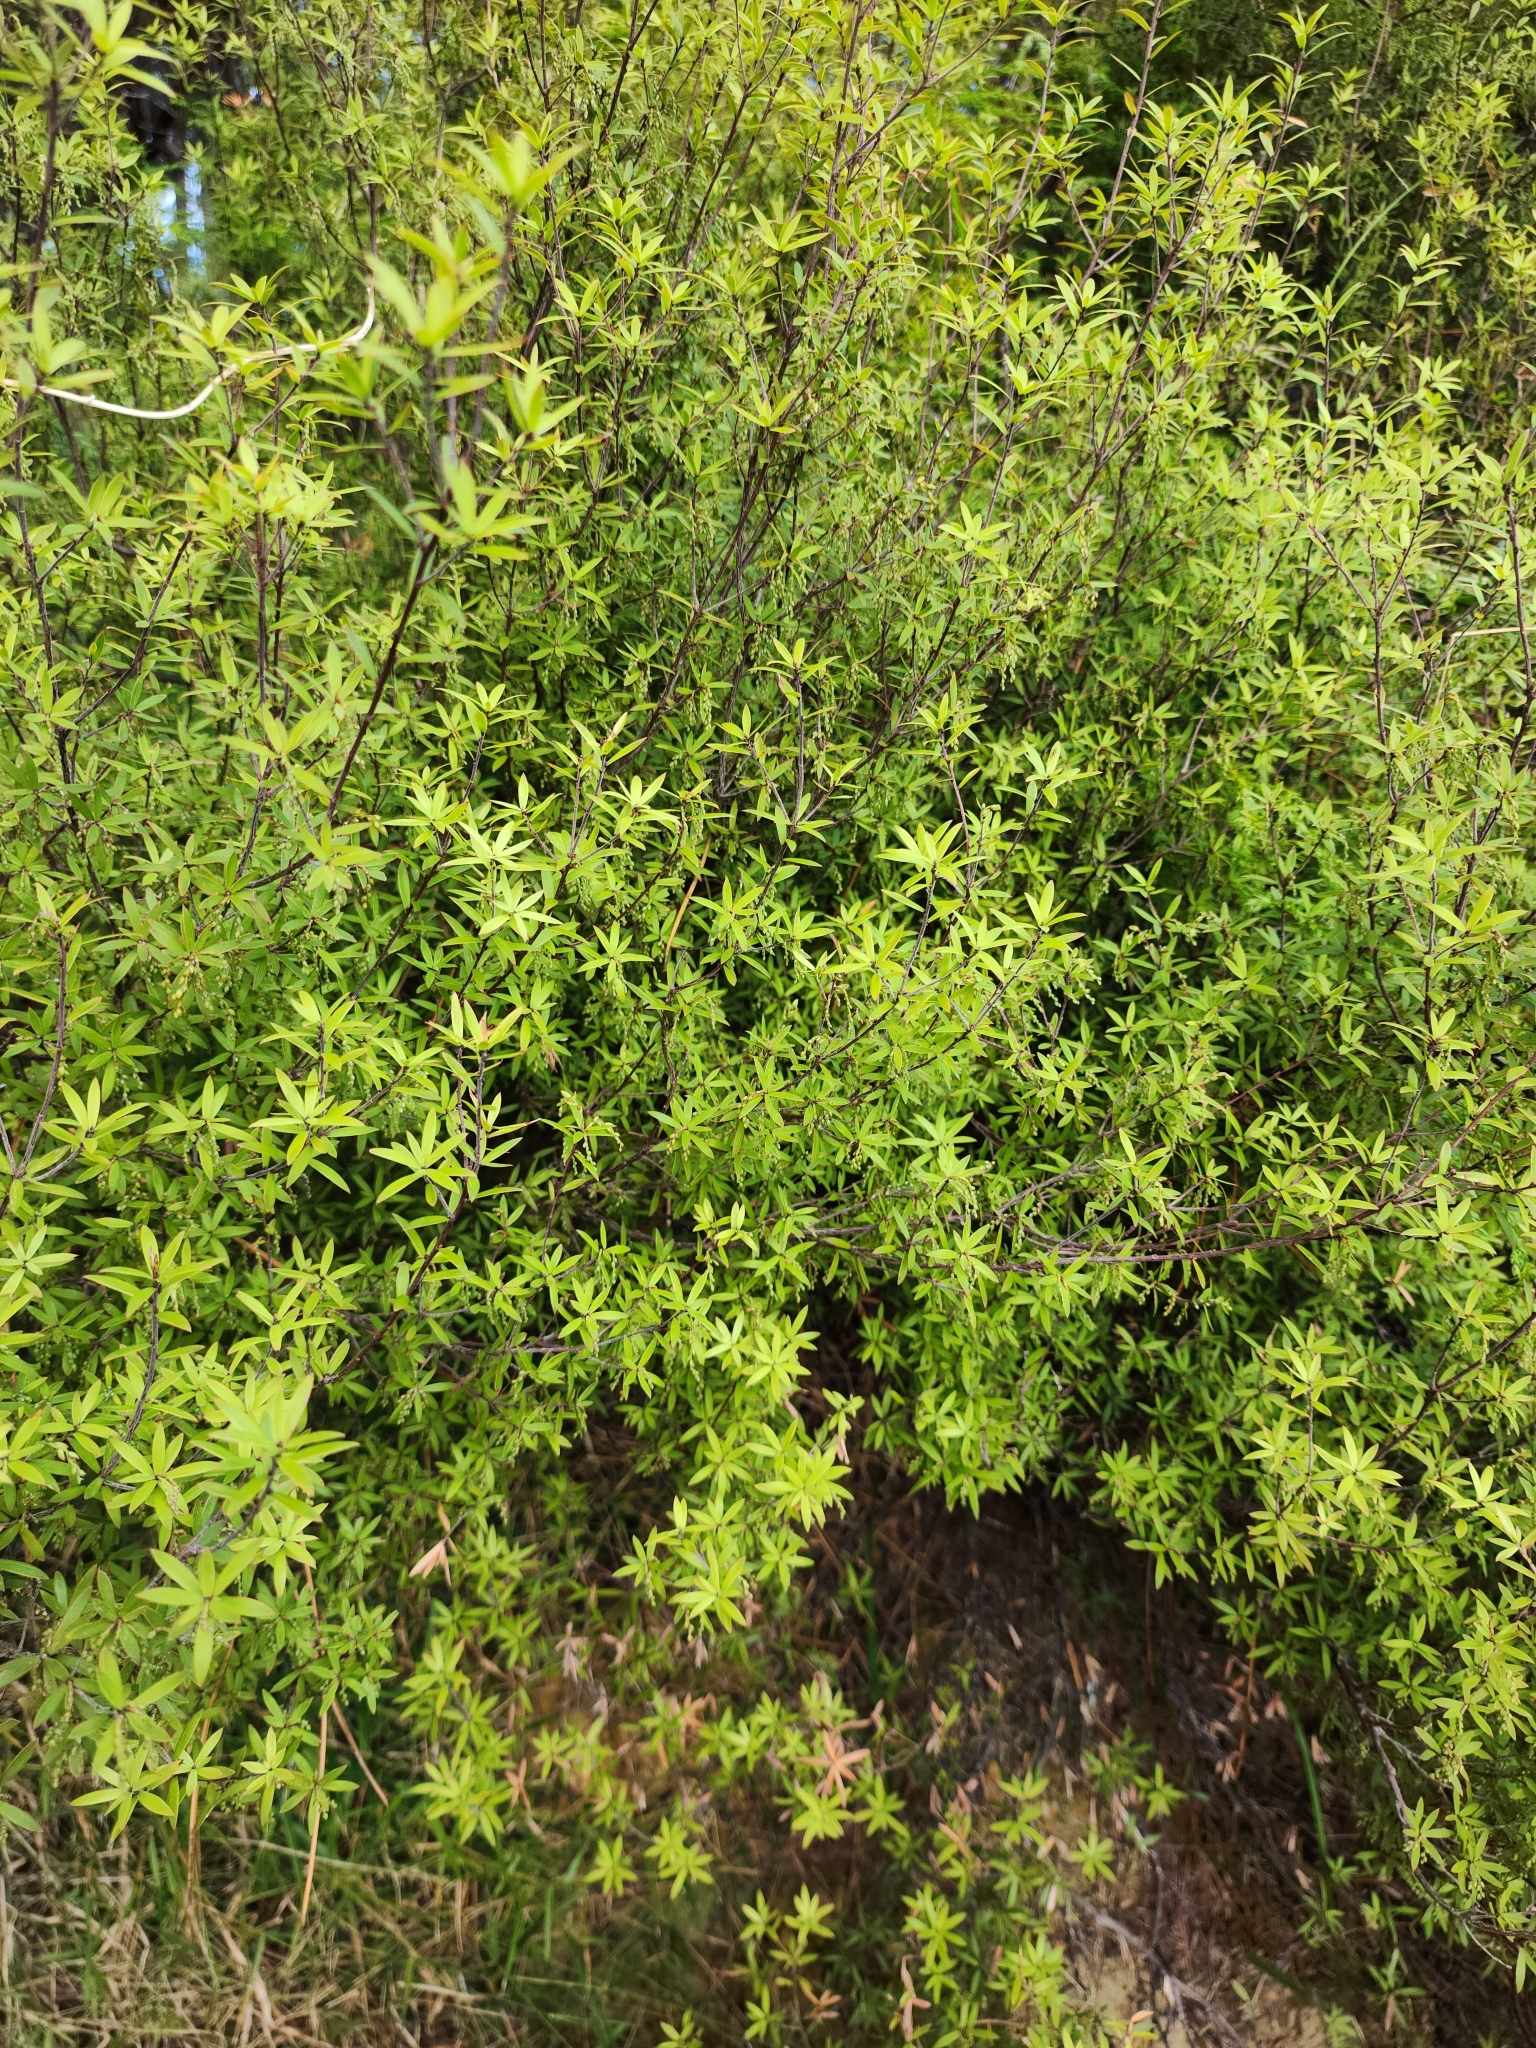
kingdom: Plantae
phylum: Tracheophyta
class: Magnoliopsida
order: Ericales
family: Ericaceae
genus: Leucopogon
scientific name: Leucopogon fasciculatus
